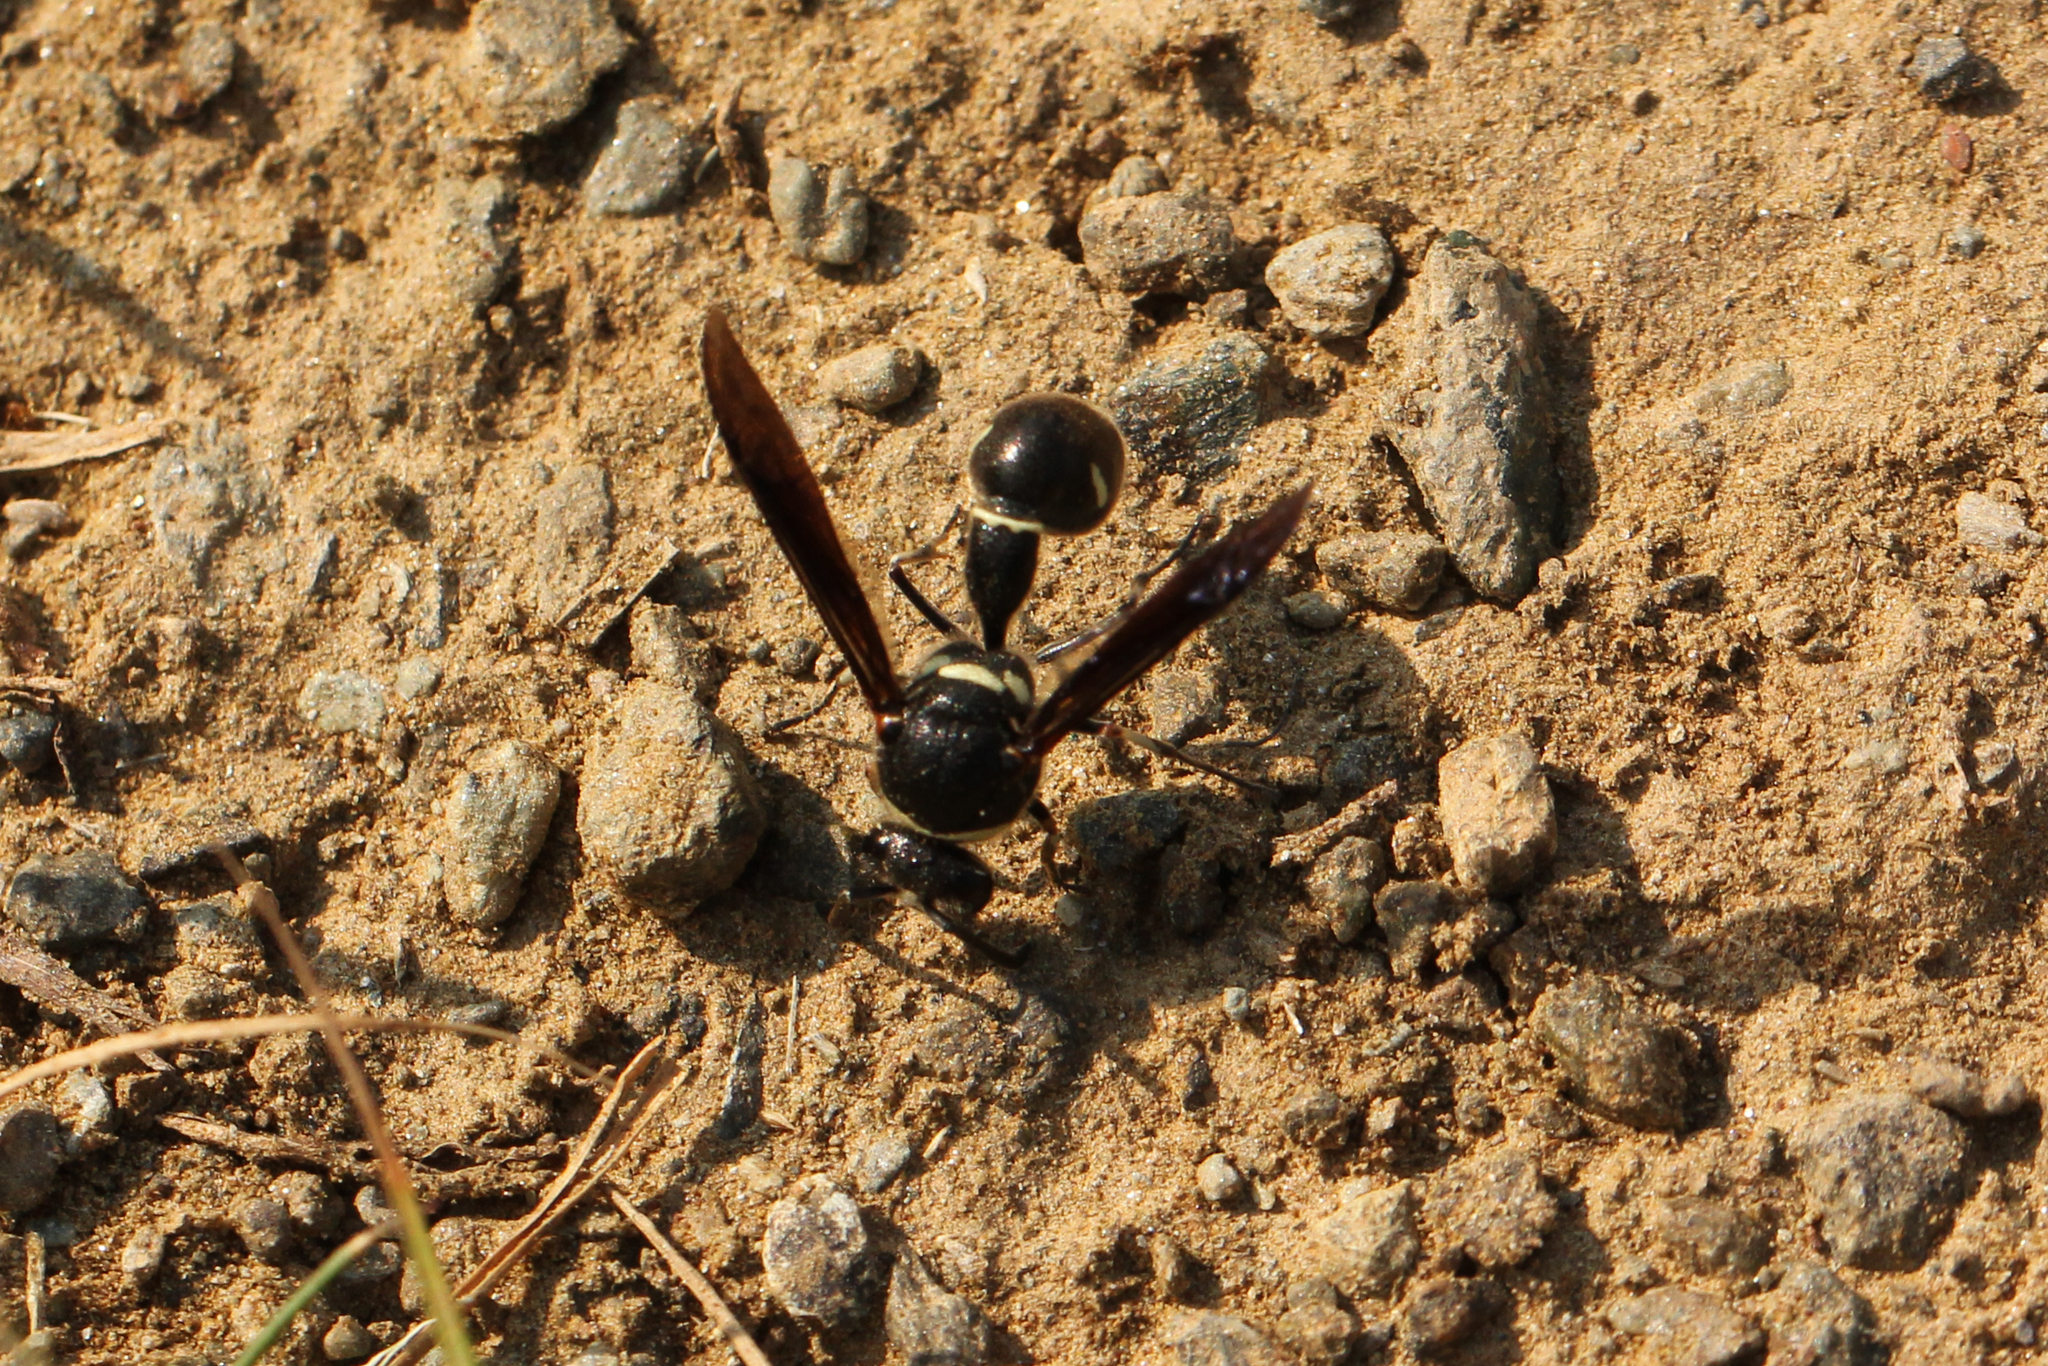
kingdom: Animalia
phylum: Arthropoda
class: Insecta
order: Hymenoptera
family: Vespidae
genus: Eumenes
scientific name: Eumenes fraternus
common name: Fraternal potter wasp
